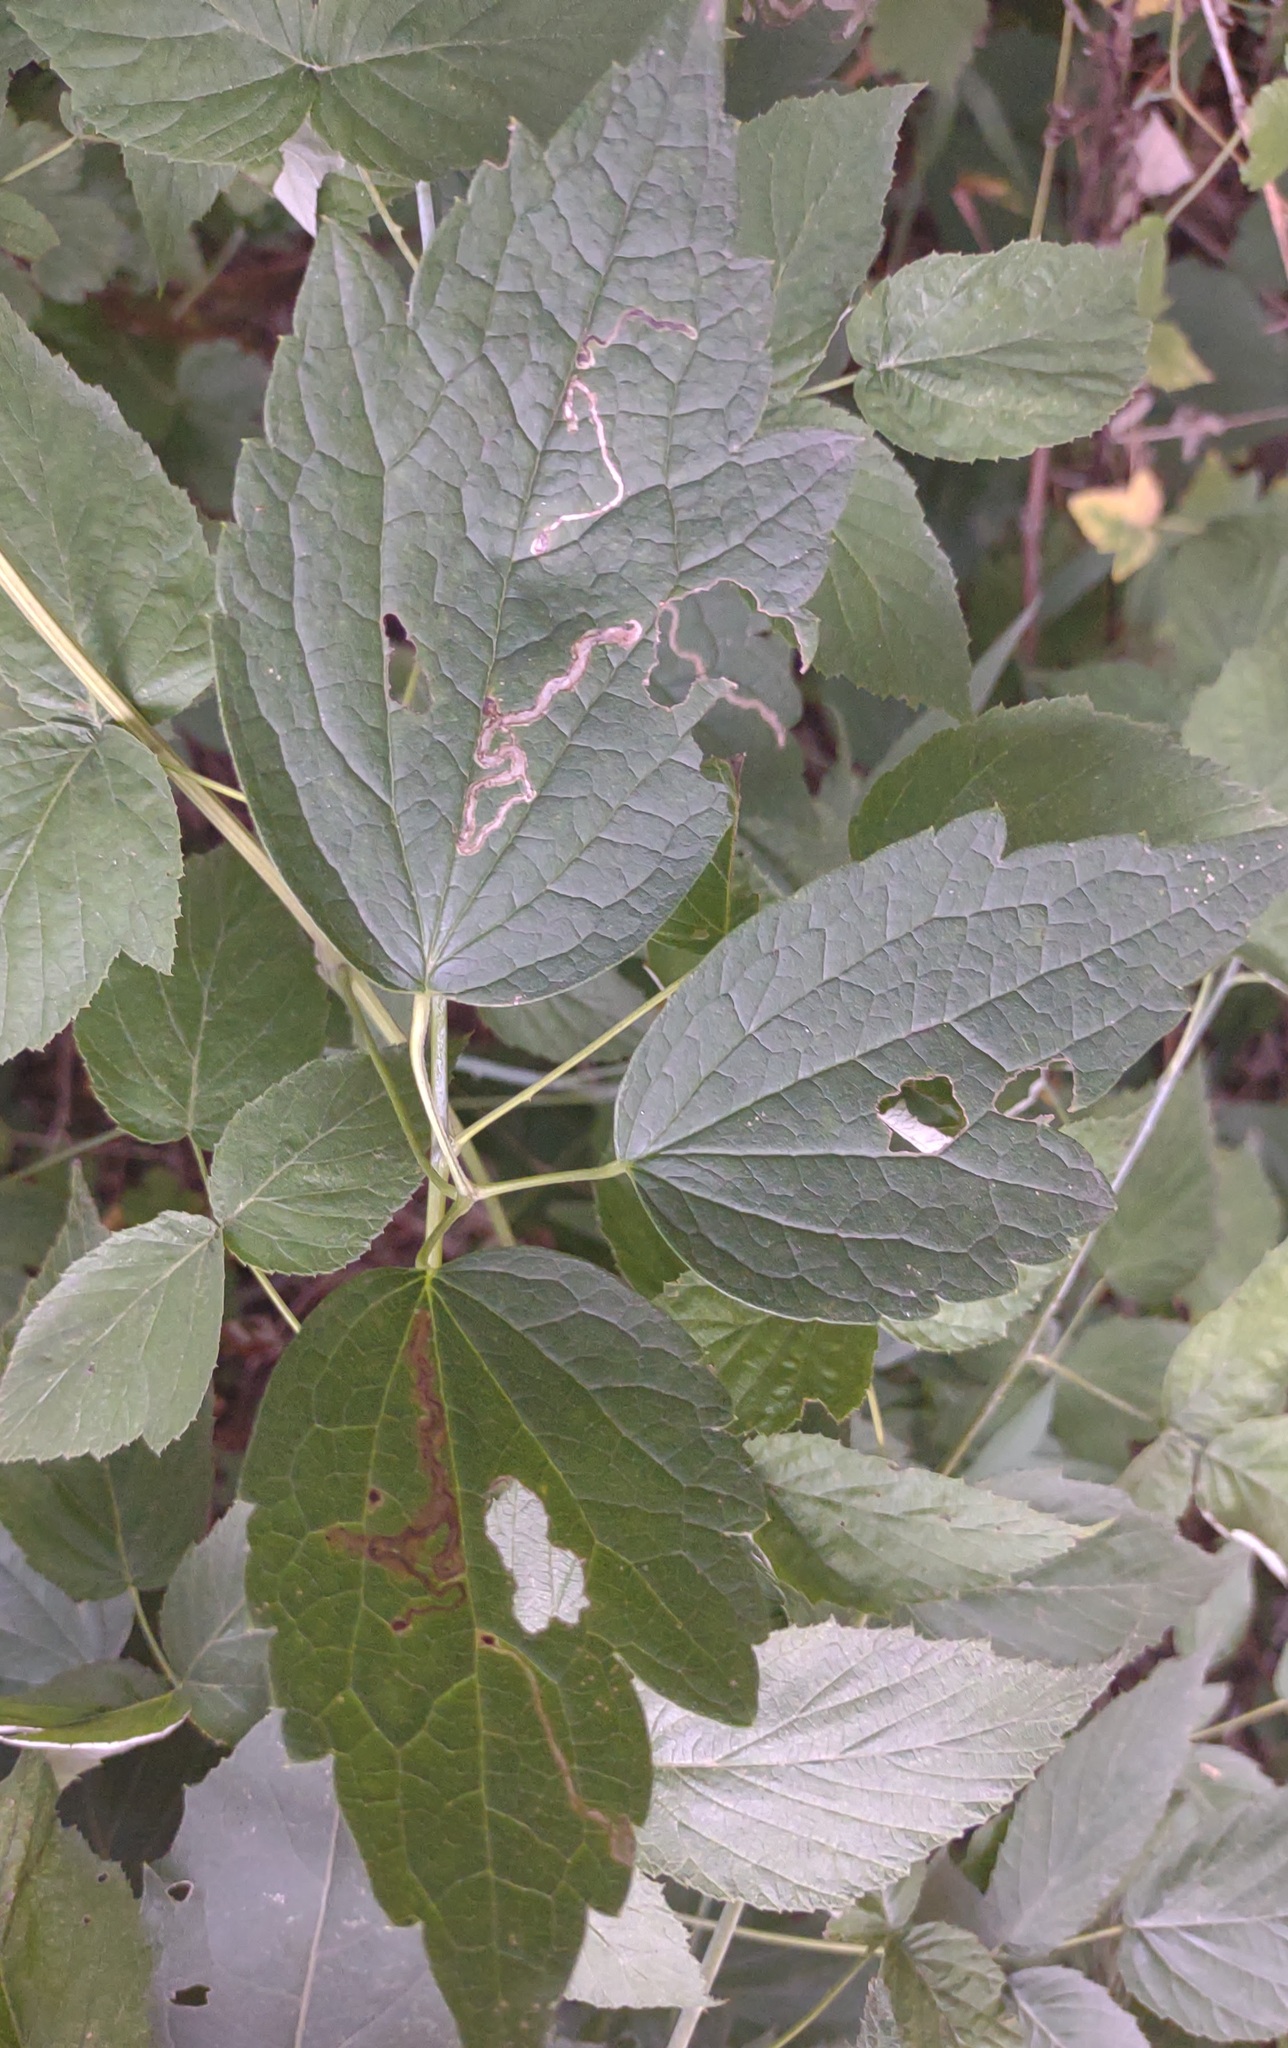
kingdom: Animalia
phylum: Arthropoda
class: Insecta
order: Diptera
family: Agromyzidae
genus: Phytomyza
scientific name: Phytomyza loewii
